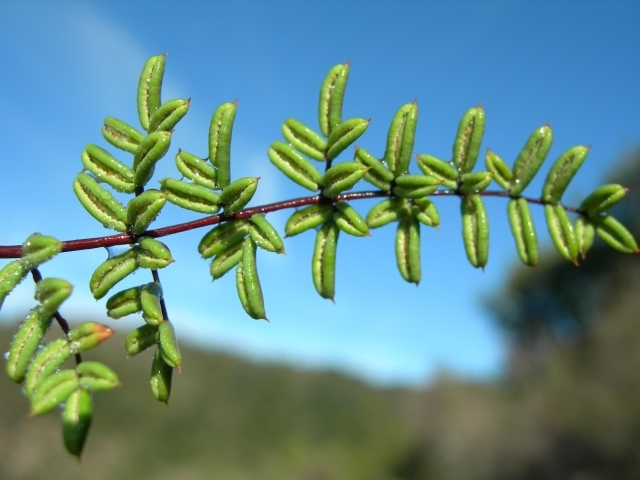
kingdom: Plantae
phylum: Tracheophyta
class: Polypodiopsida
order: Polypodiales
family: Pteridaceae
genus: Pellaea
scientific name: Pellaea mucronata
